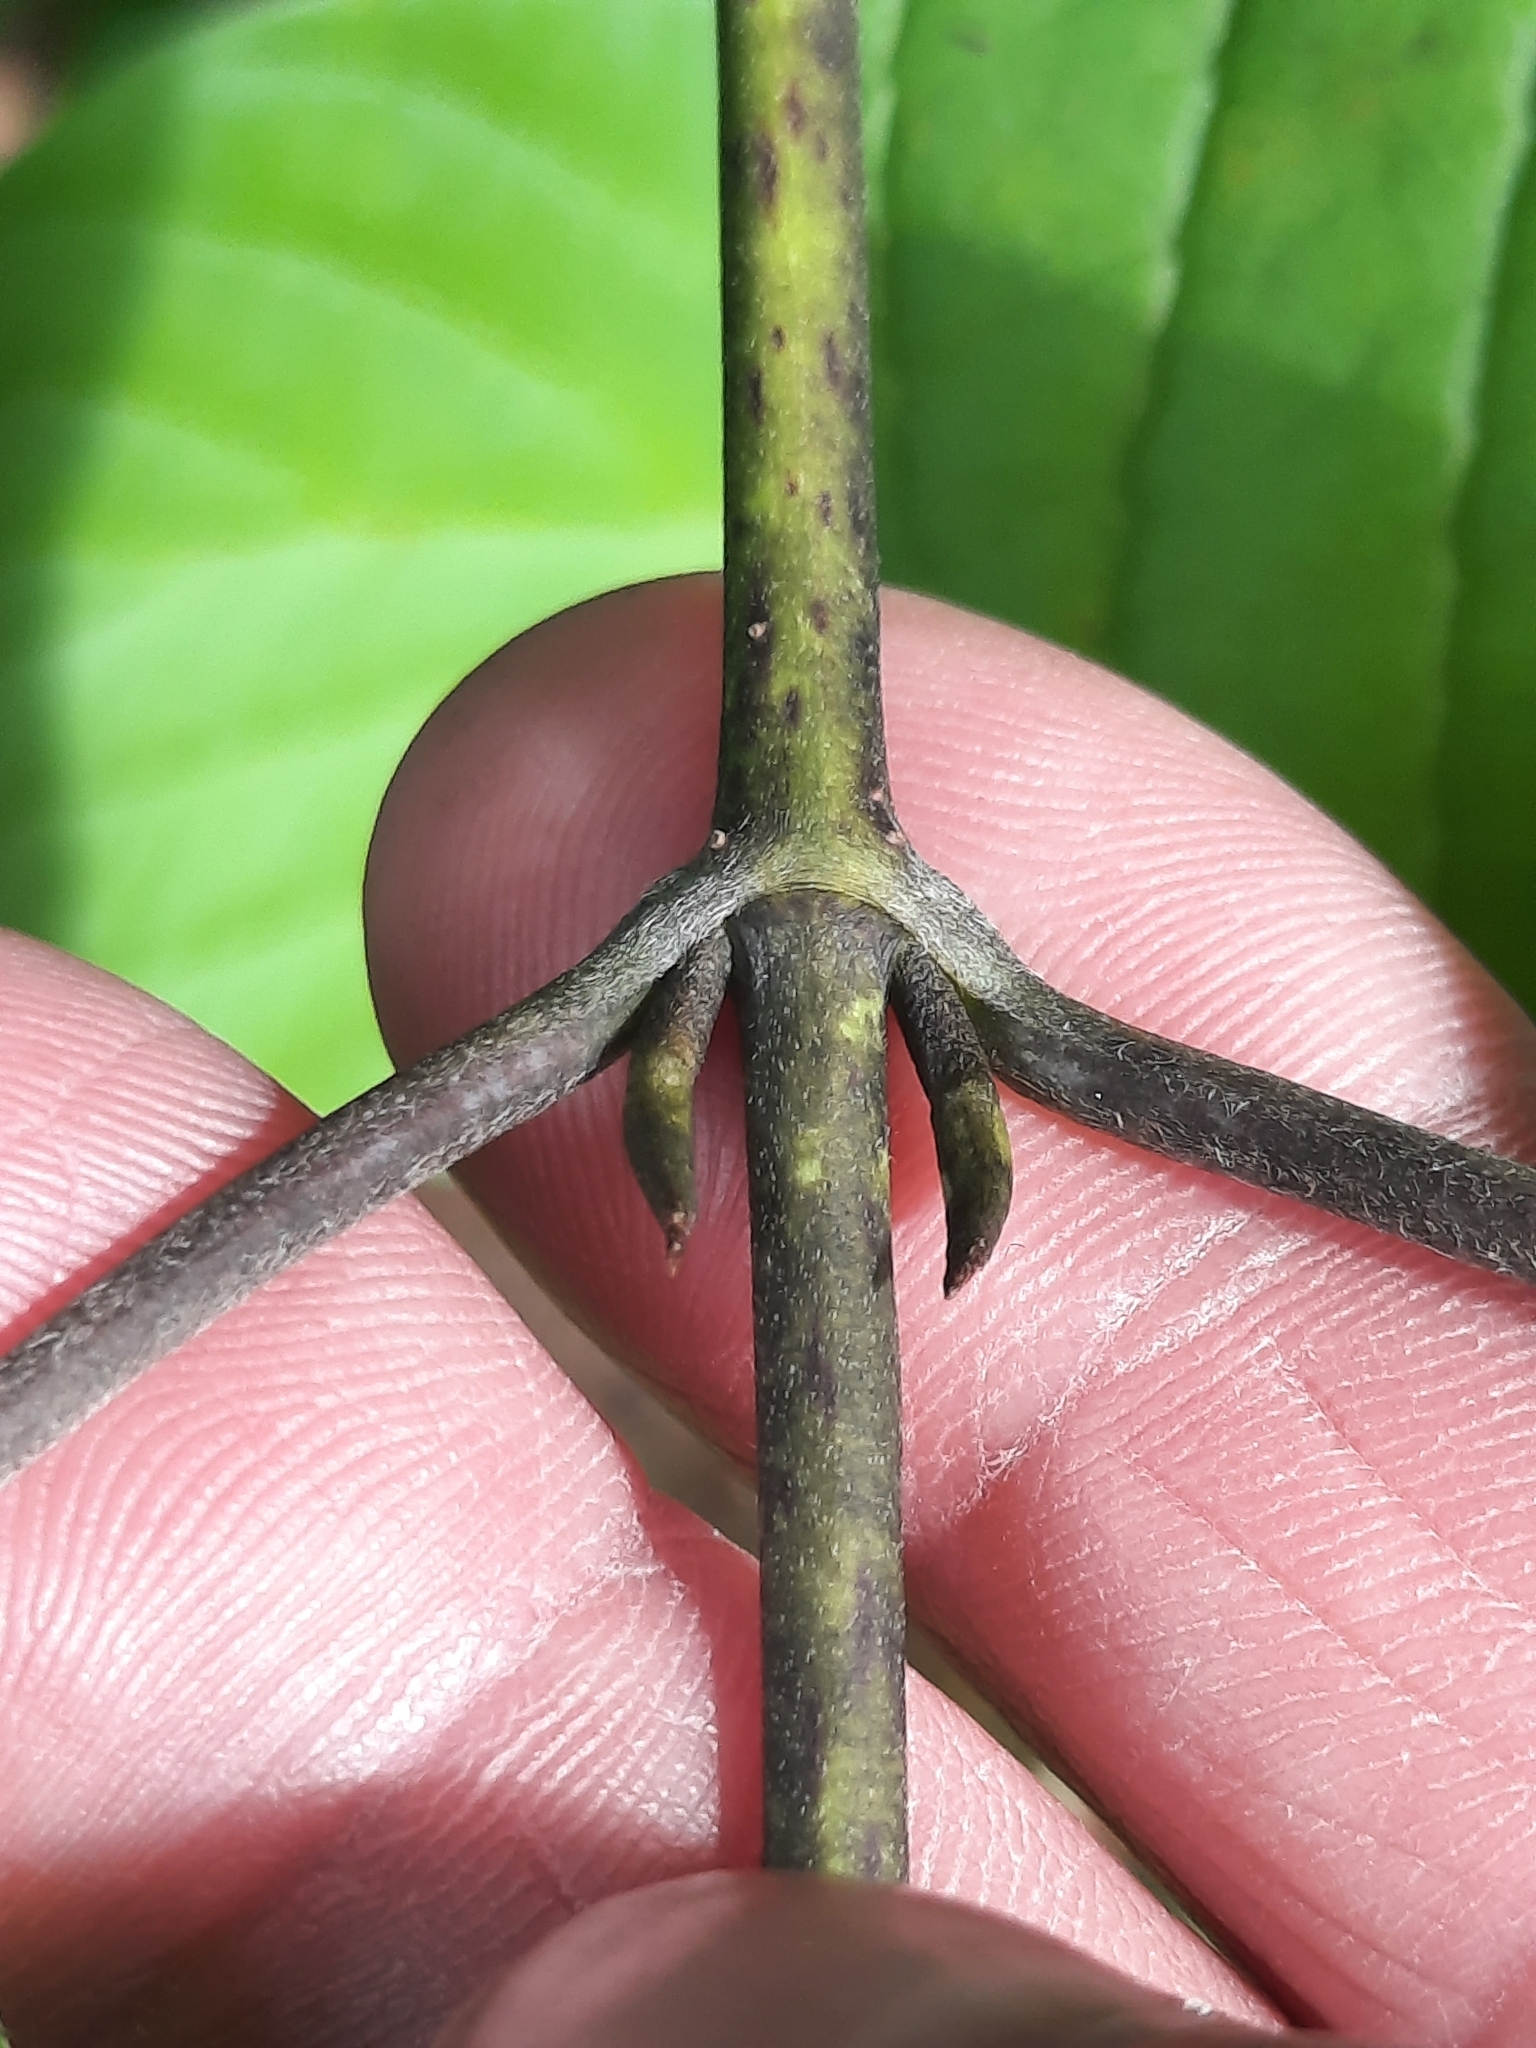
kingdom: Plantae
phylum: Tracheophyta
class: Magnoliopsida
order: Cornales
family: Cornaceae
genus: Cornus
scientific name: Cornus rugosa
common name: Round-leaf dogwood
